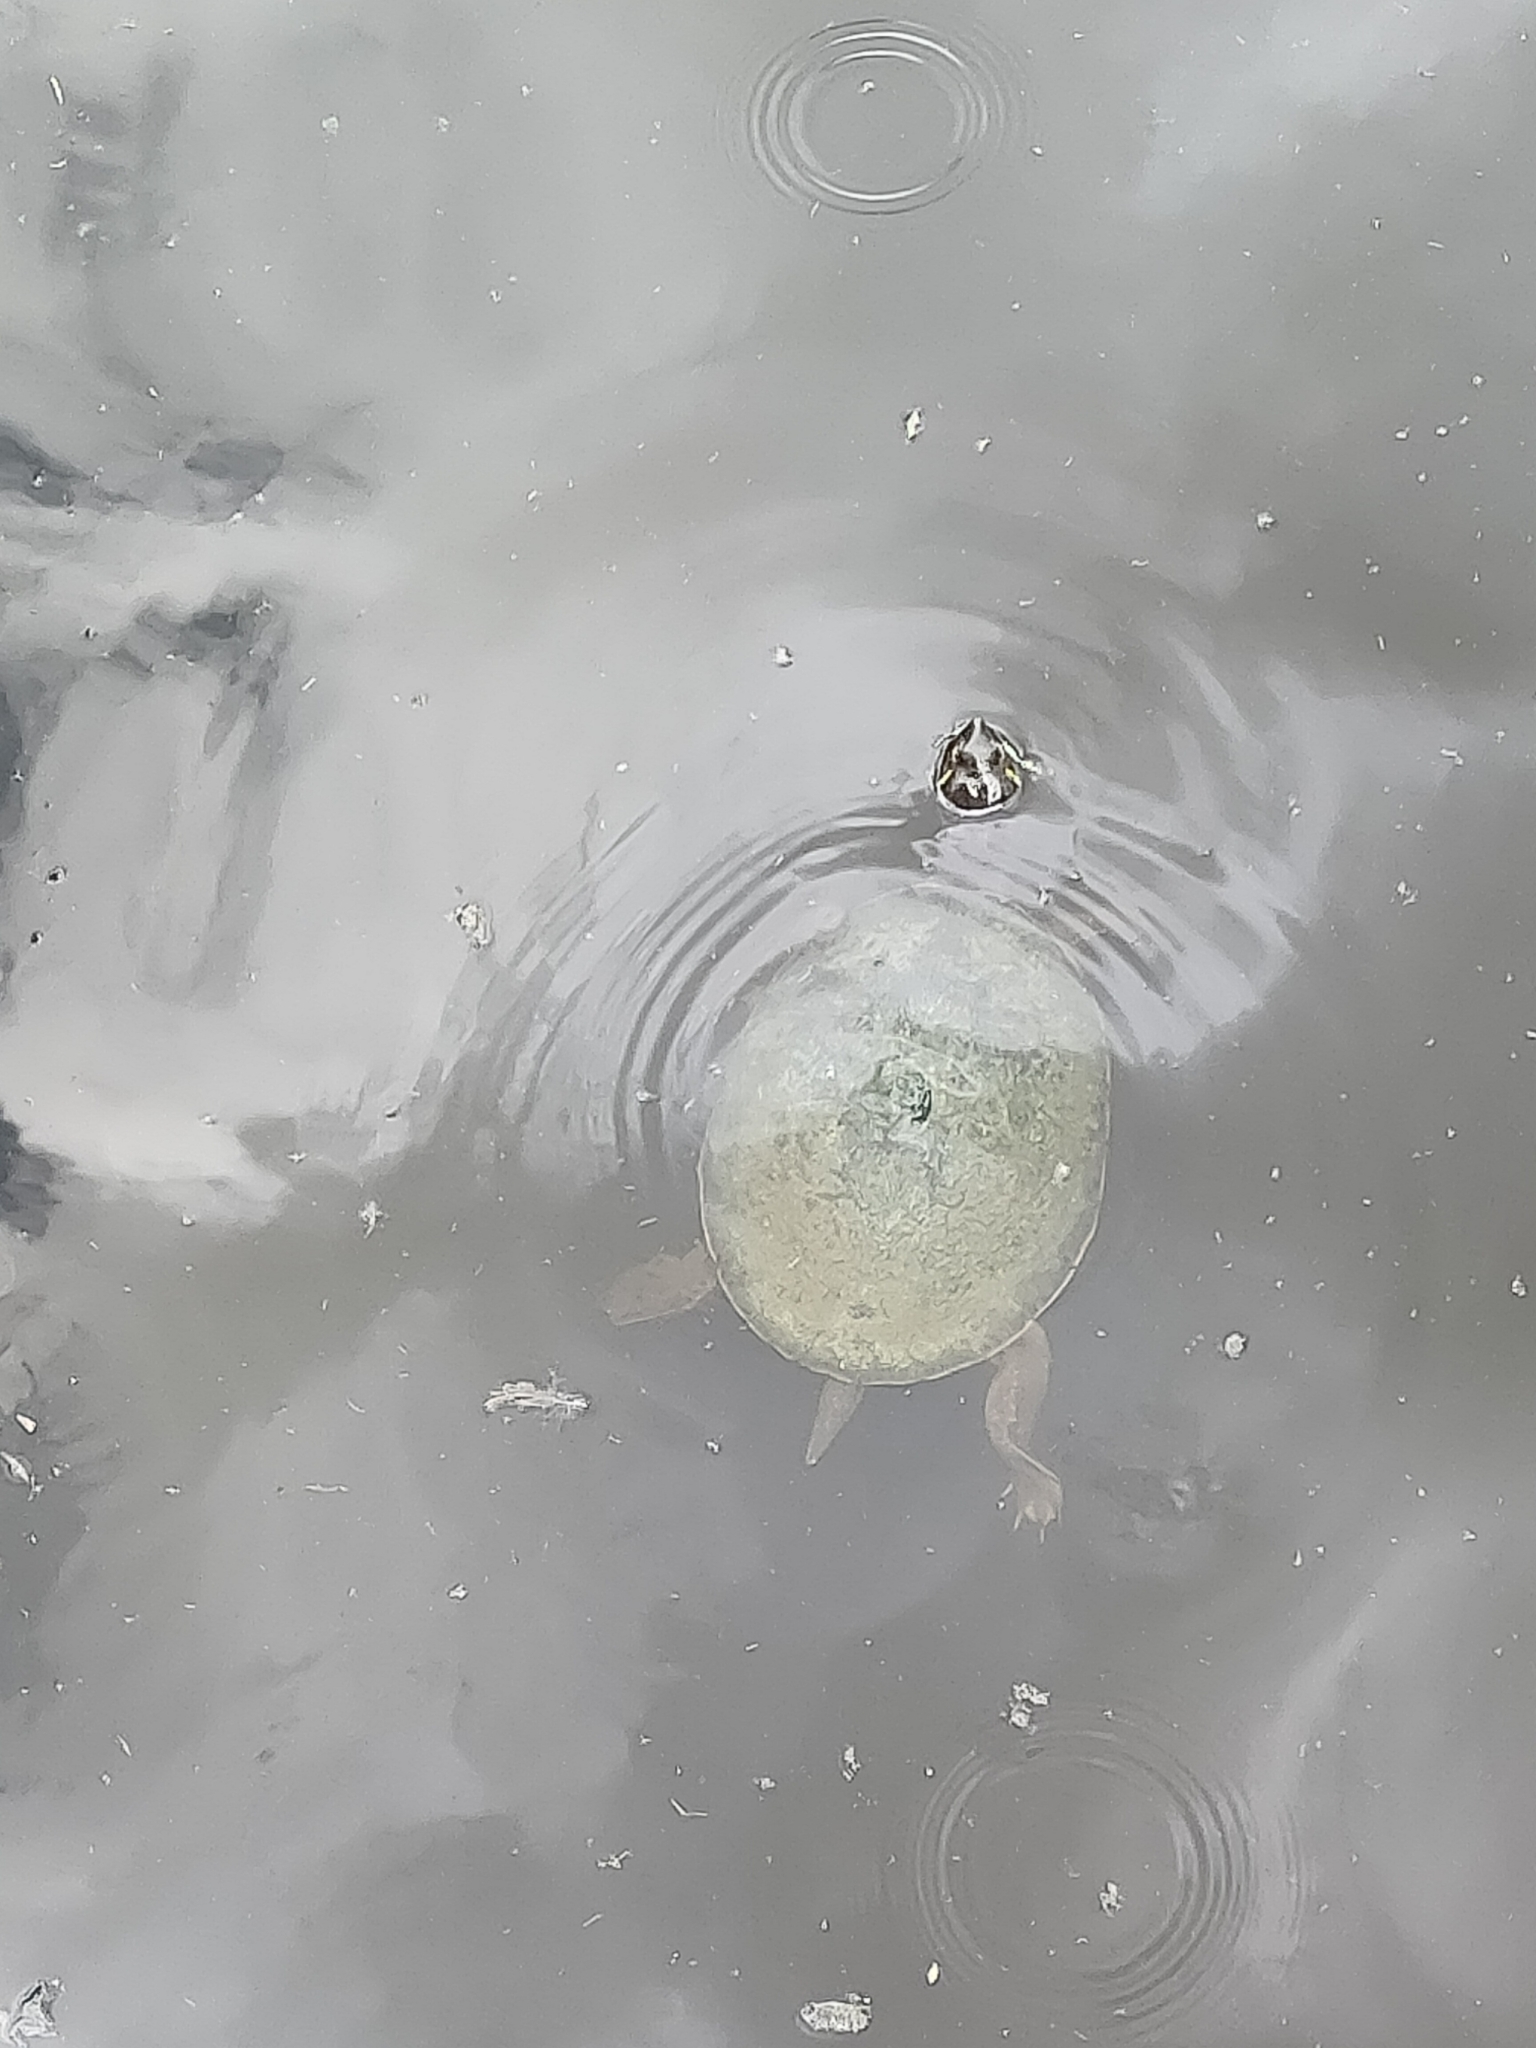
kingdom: Animalia
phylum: Chordata
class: Testudines
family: Chelidae
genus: Emydura
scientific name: Emydura macquarii
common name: Murray river turtle
